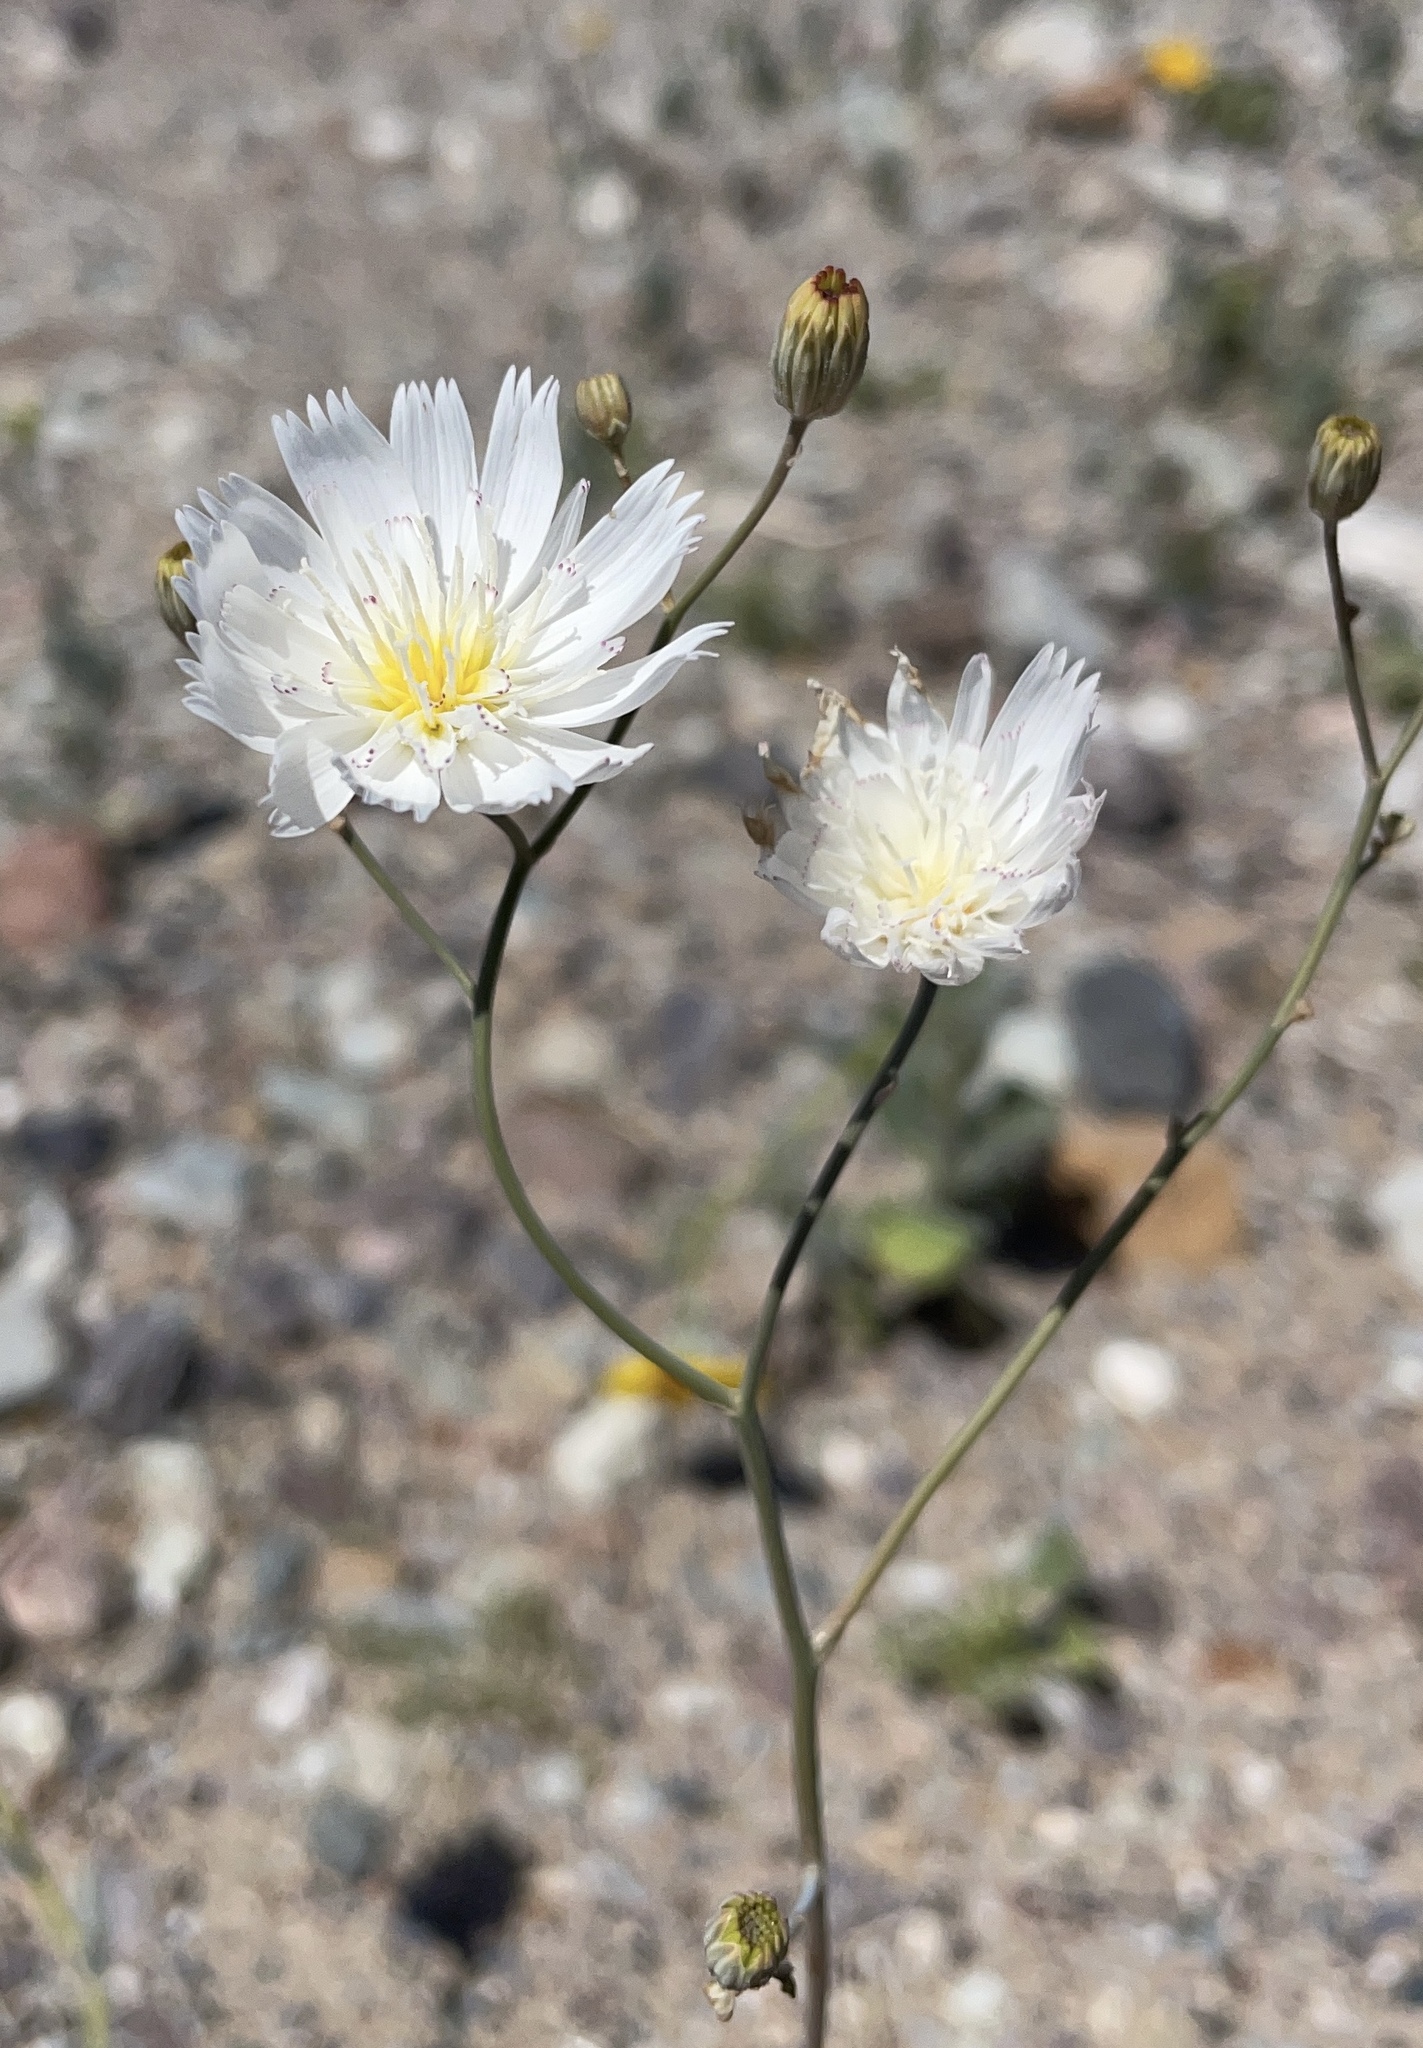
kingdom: Plantae
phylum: Tracheophyta
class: Magnoliopsida
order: Asterales
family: Asteraceae
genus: Atrichoseris
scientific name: Atrichoseris platyphylla
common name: Tobaccoweed
